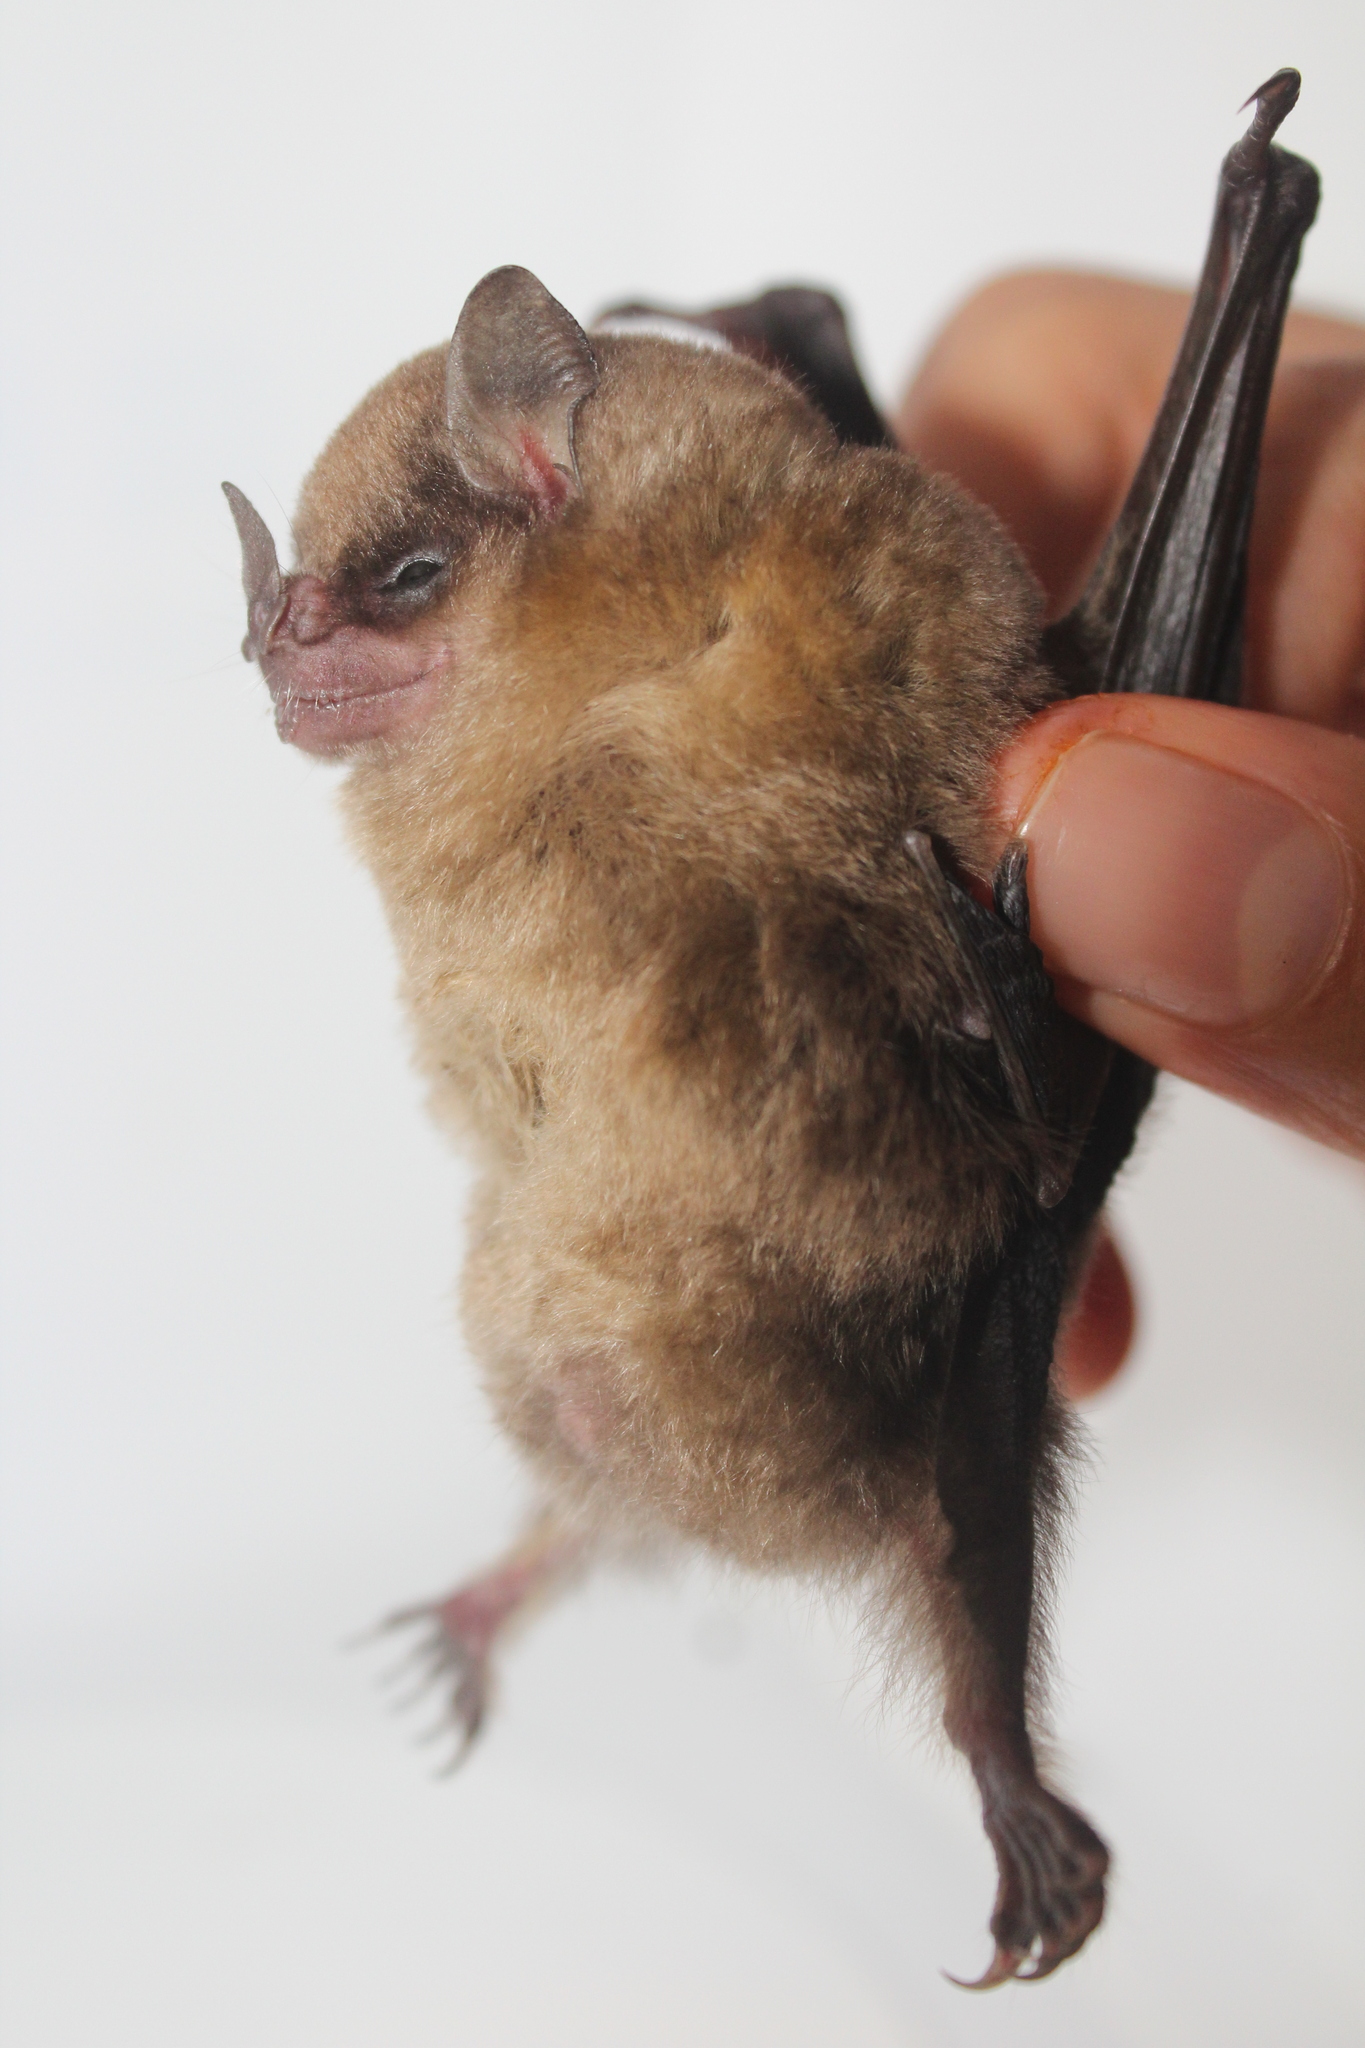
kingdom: Animalia
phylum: Chordata
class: Mammalia
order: Chiroptera
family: Phyllostomidae
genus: Sturnira
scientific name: Sturnira luisi
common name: Luis's yellow-shouldered bat
